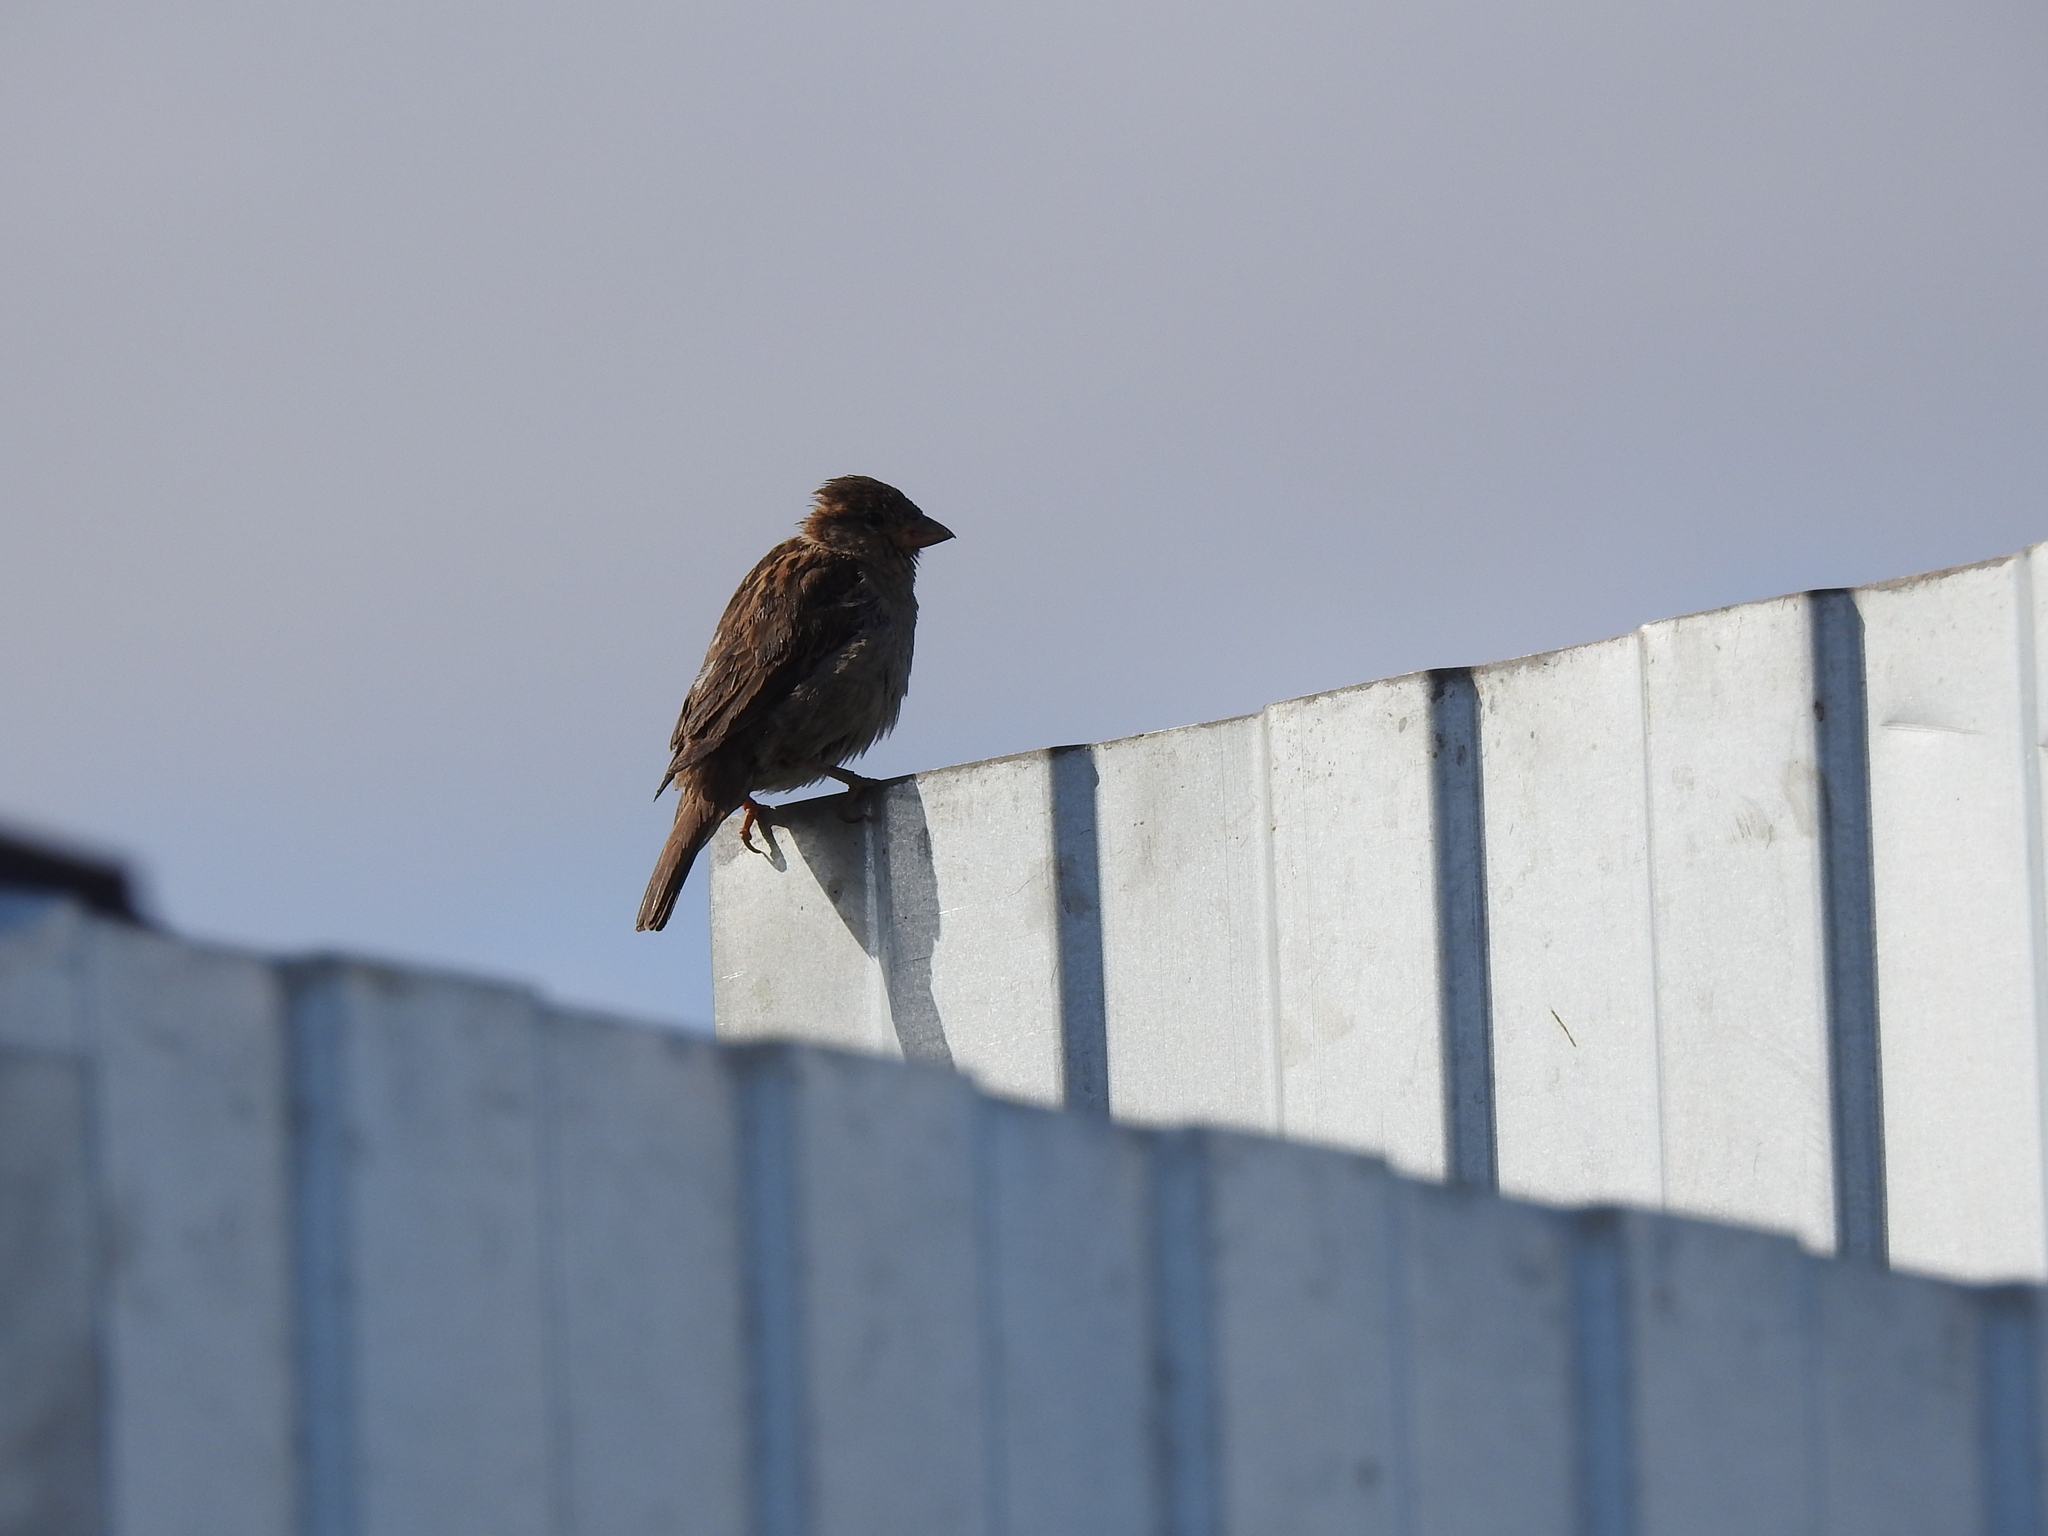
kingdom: Animalia
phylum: Chordata
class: Aves
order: Passeriformes
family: Passeridae
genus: Passer
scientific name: Passer domesticus
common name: House sparrow
